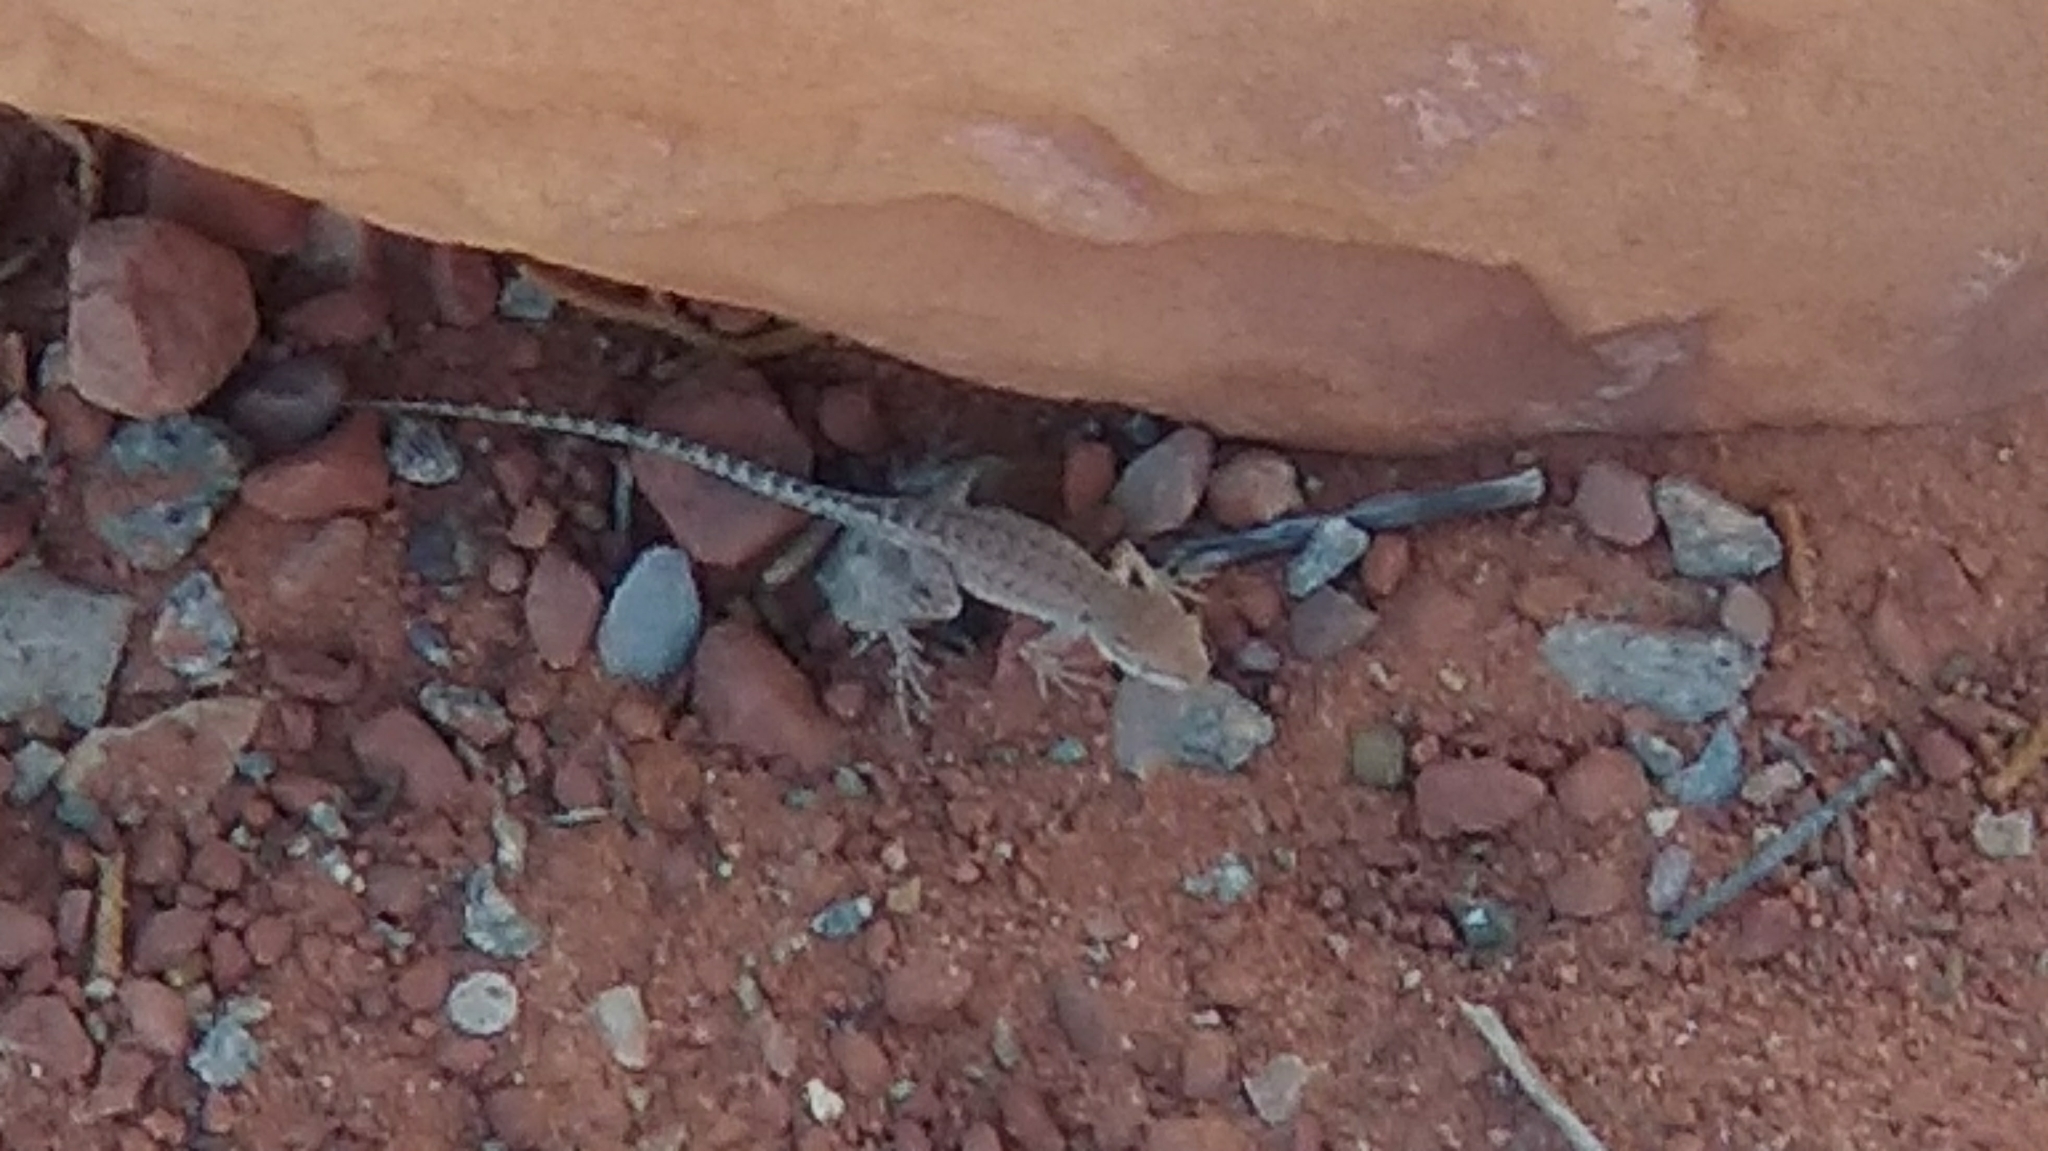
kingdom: Animalia
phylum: Chordata
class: Squamata
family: Phrynosomatidae
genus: Uta
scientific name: Uta stansburiana
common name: Side-blotched lizard
